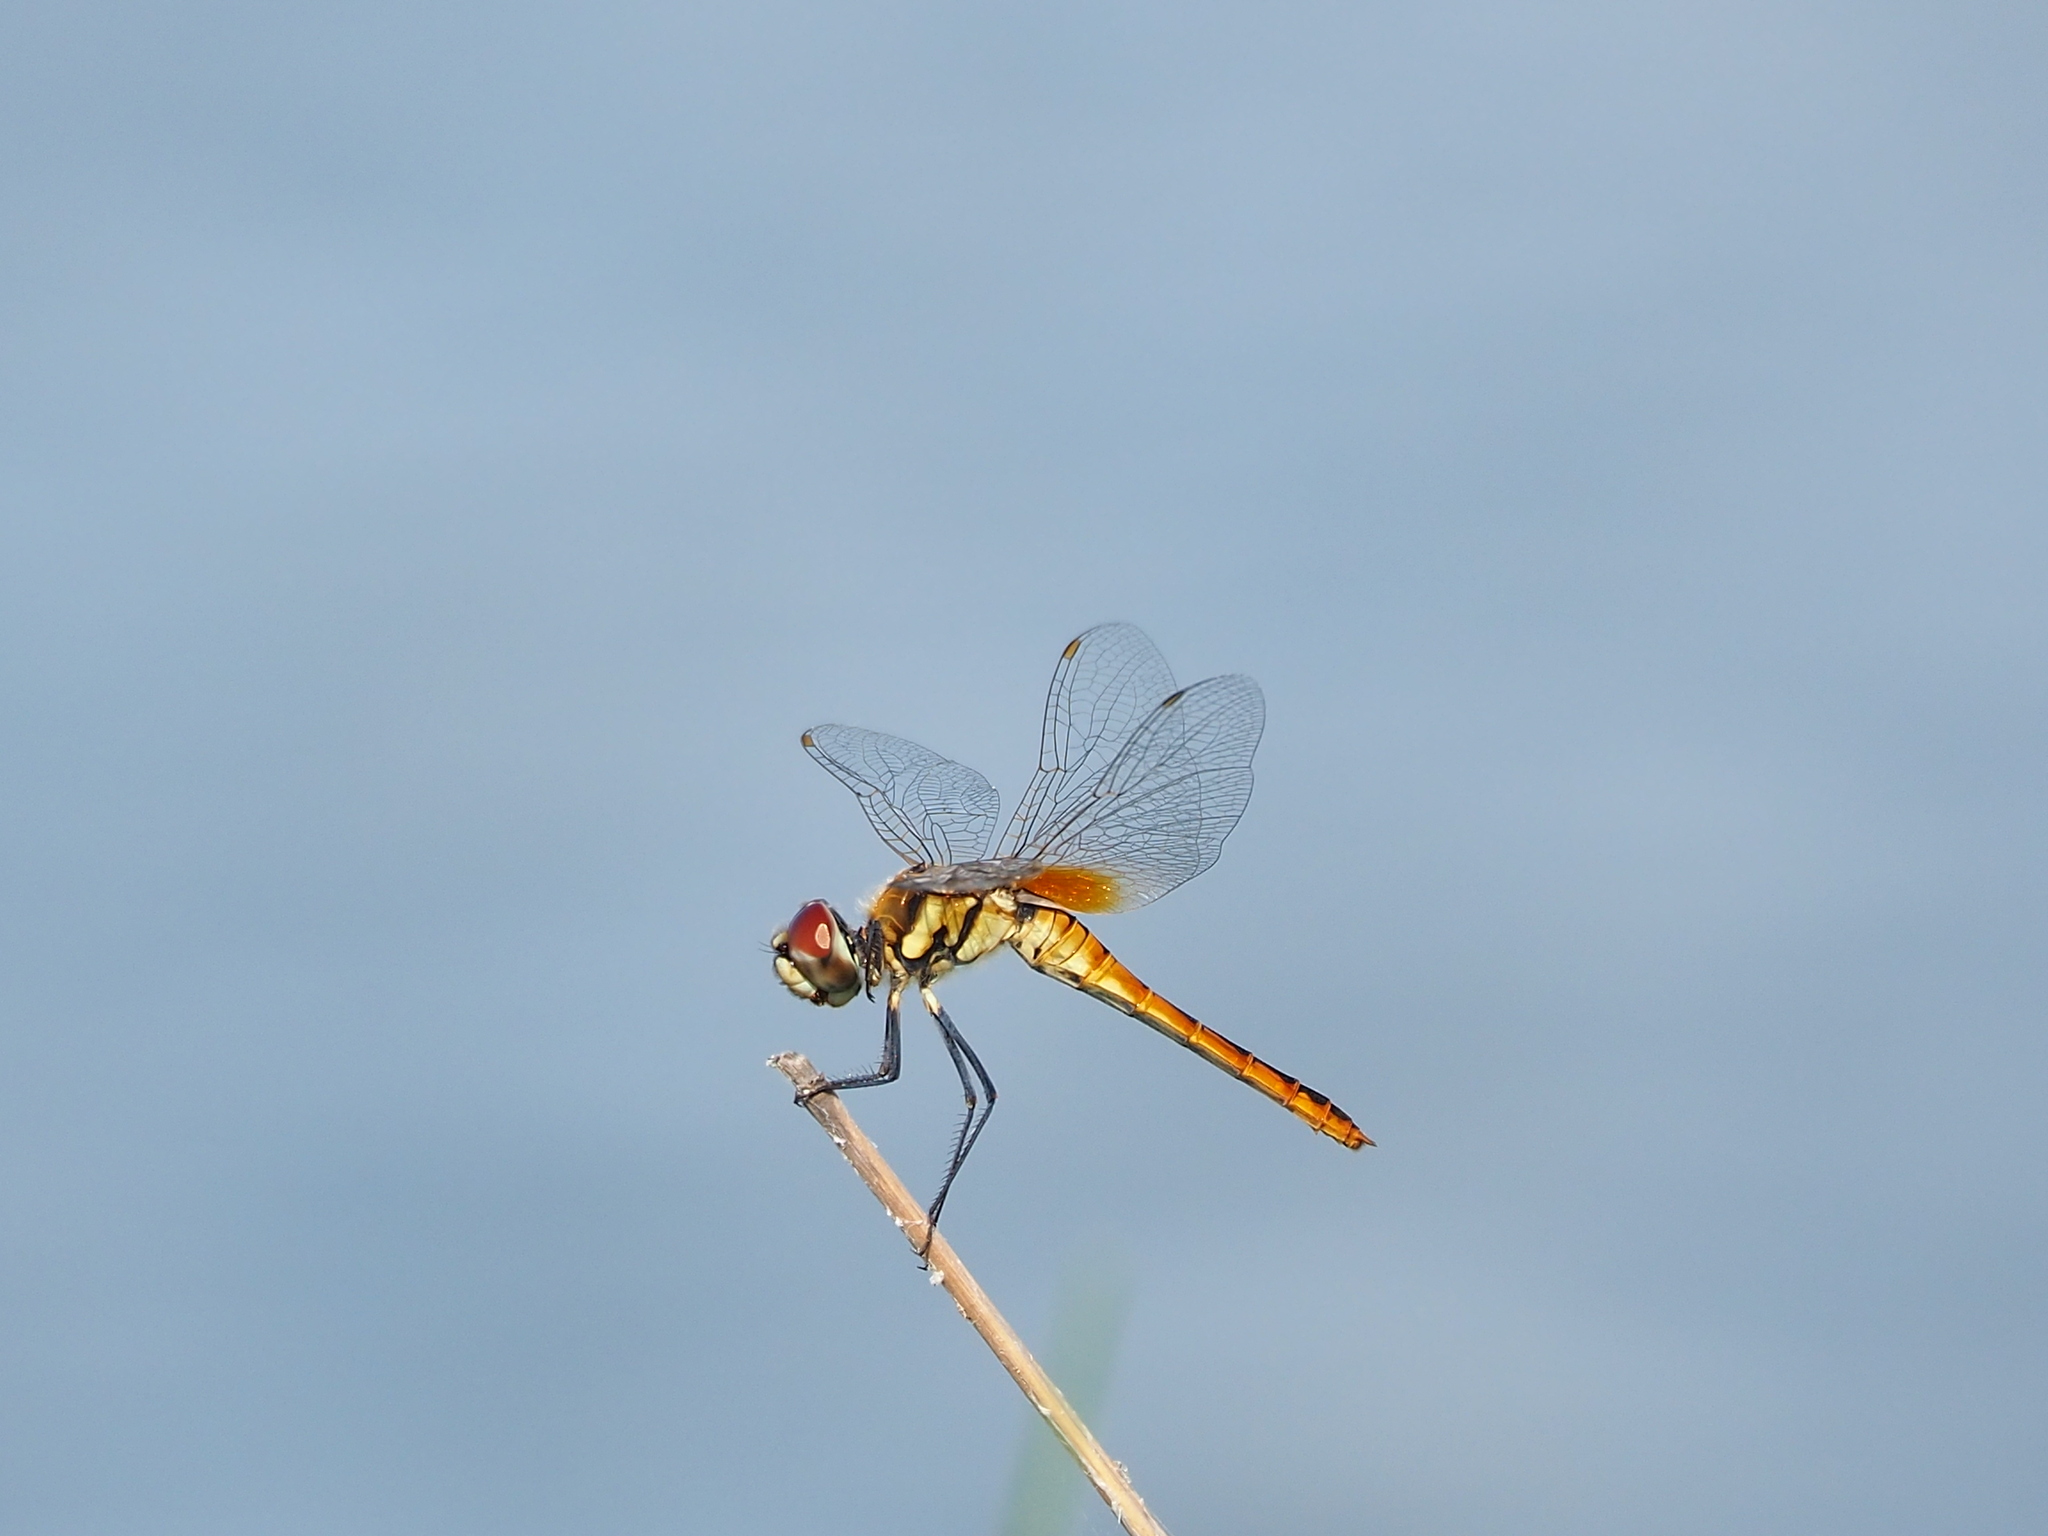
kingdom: Animalia
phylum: Arthropoda
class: Insecta
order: Odonata
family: Libellulidae
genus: Macrodiplax
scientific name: Macrodiplax cora
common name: Coastal glider
